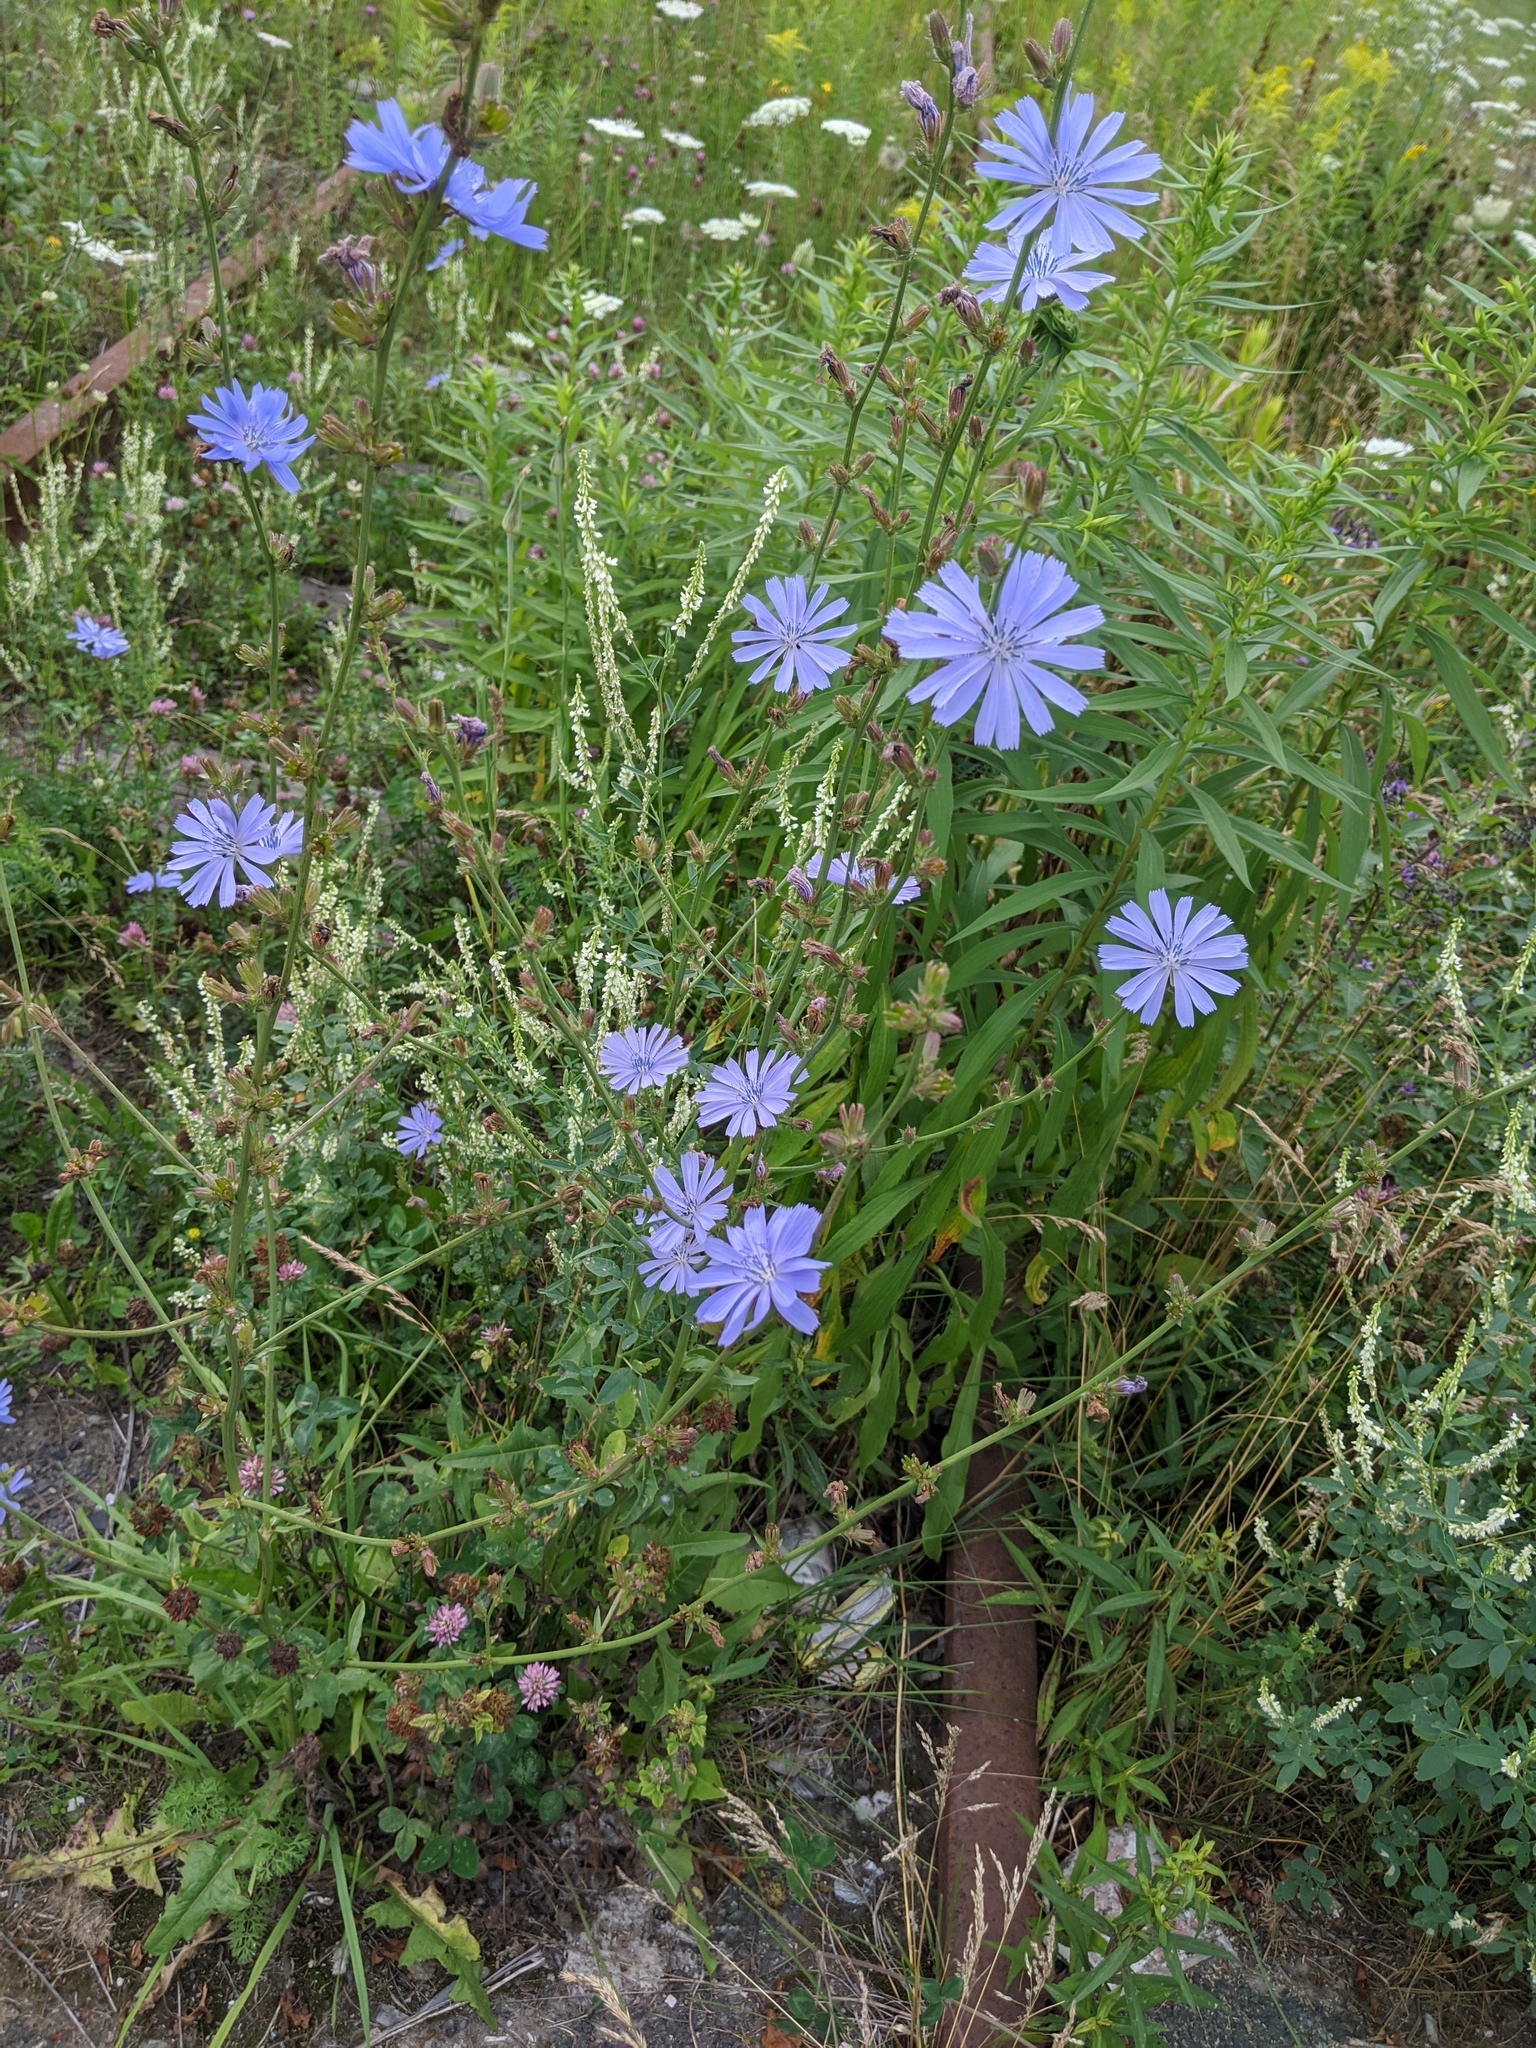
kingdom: Plantae
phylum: Tracheophyta
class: Magnoliopsida
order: Asterales
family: Asteraceae
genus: Cichorium
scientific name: Cichorium intybus
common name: Chicory
